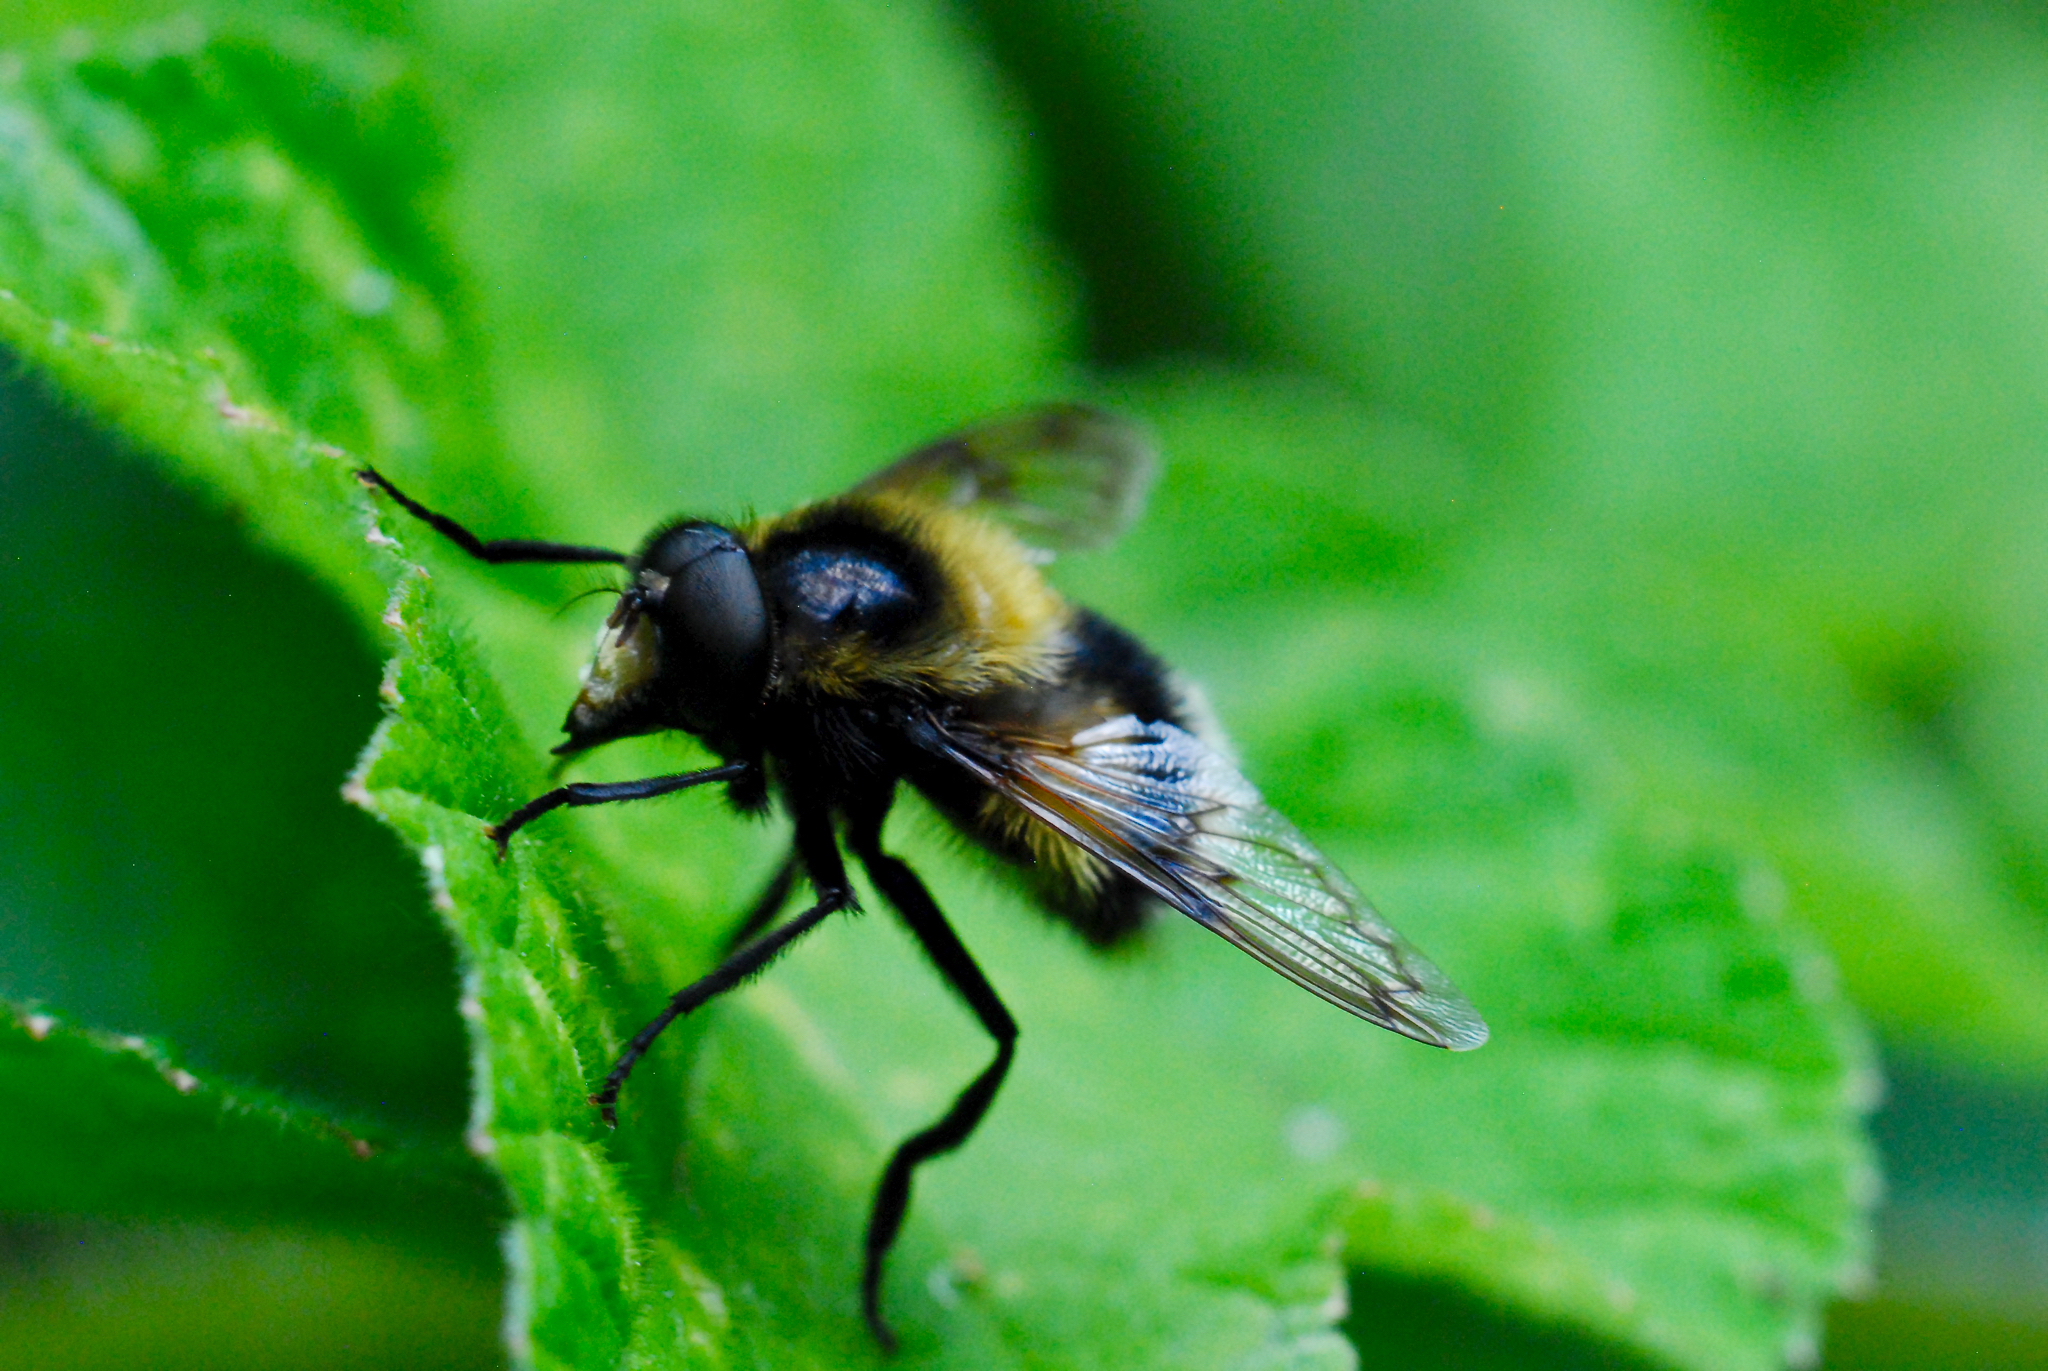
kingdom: Animalia
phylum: Arthropoda
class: Insecta
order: Diptera
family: Syrphidae
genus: Volucella
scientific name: Volucella bombylans
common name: Bumble bee hover fly
